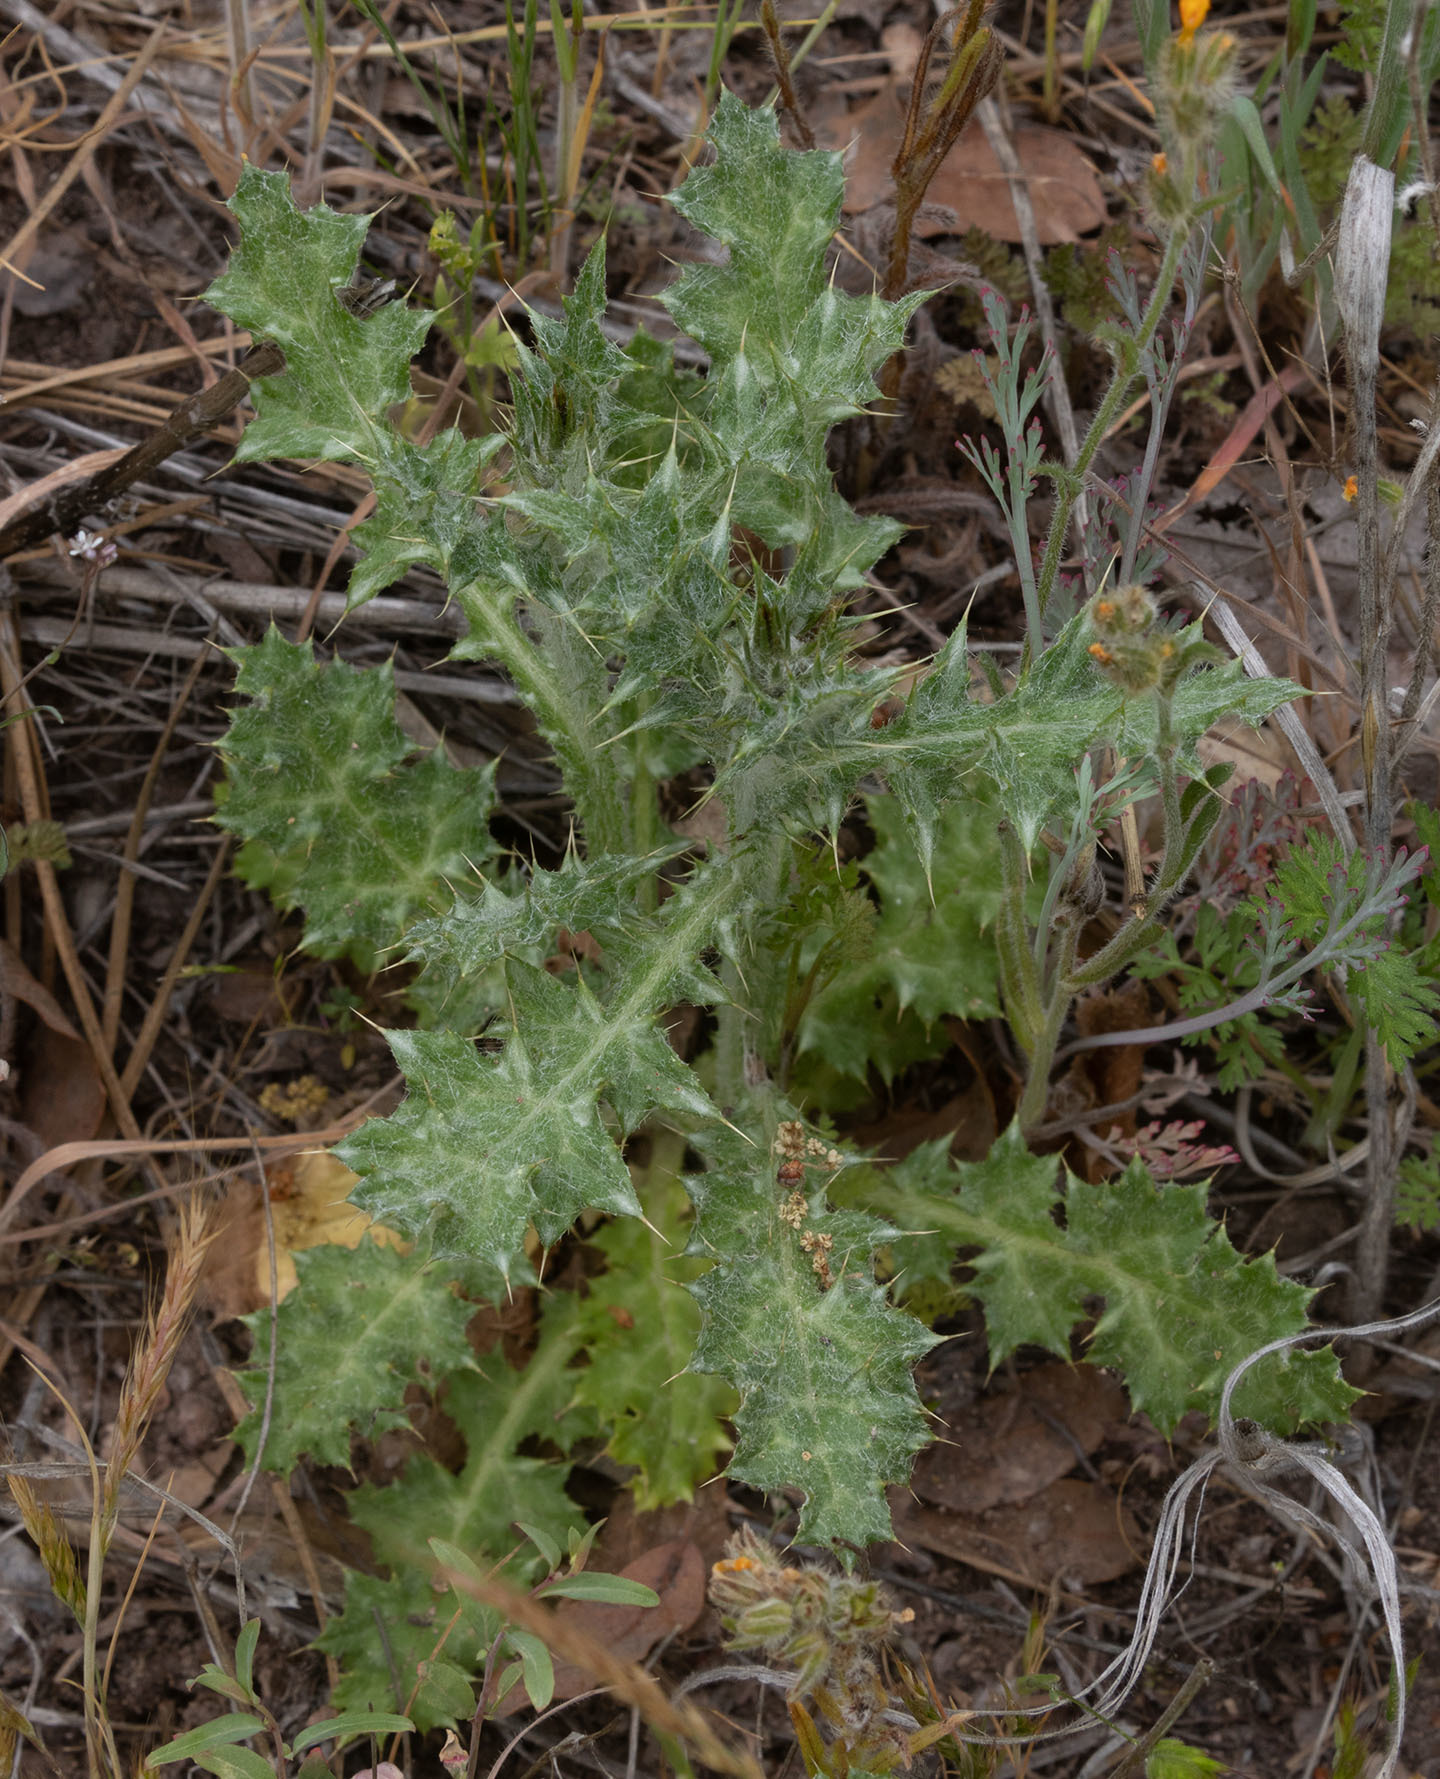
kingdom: Plantae
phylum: Tracheophyta
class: Magnoliopsida
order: Asterales
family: Asteraceae
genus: Carduus
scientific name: Carduus pycnocephalus
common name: Plymouth thistle
